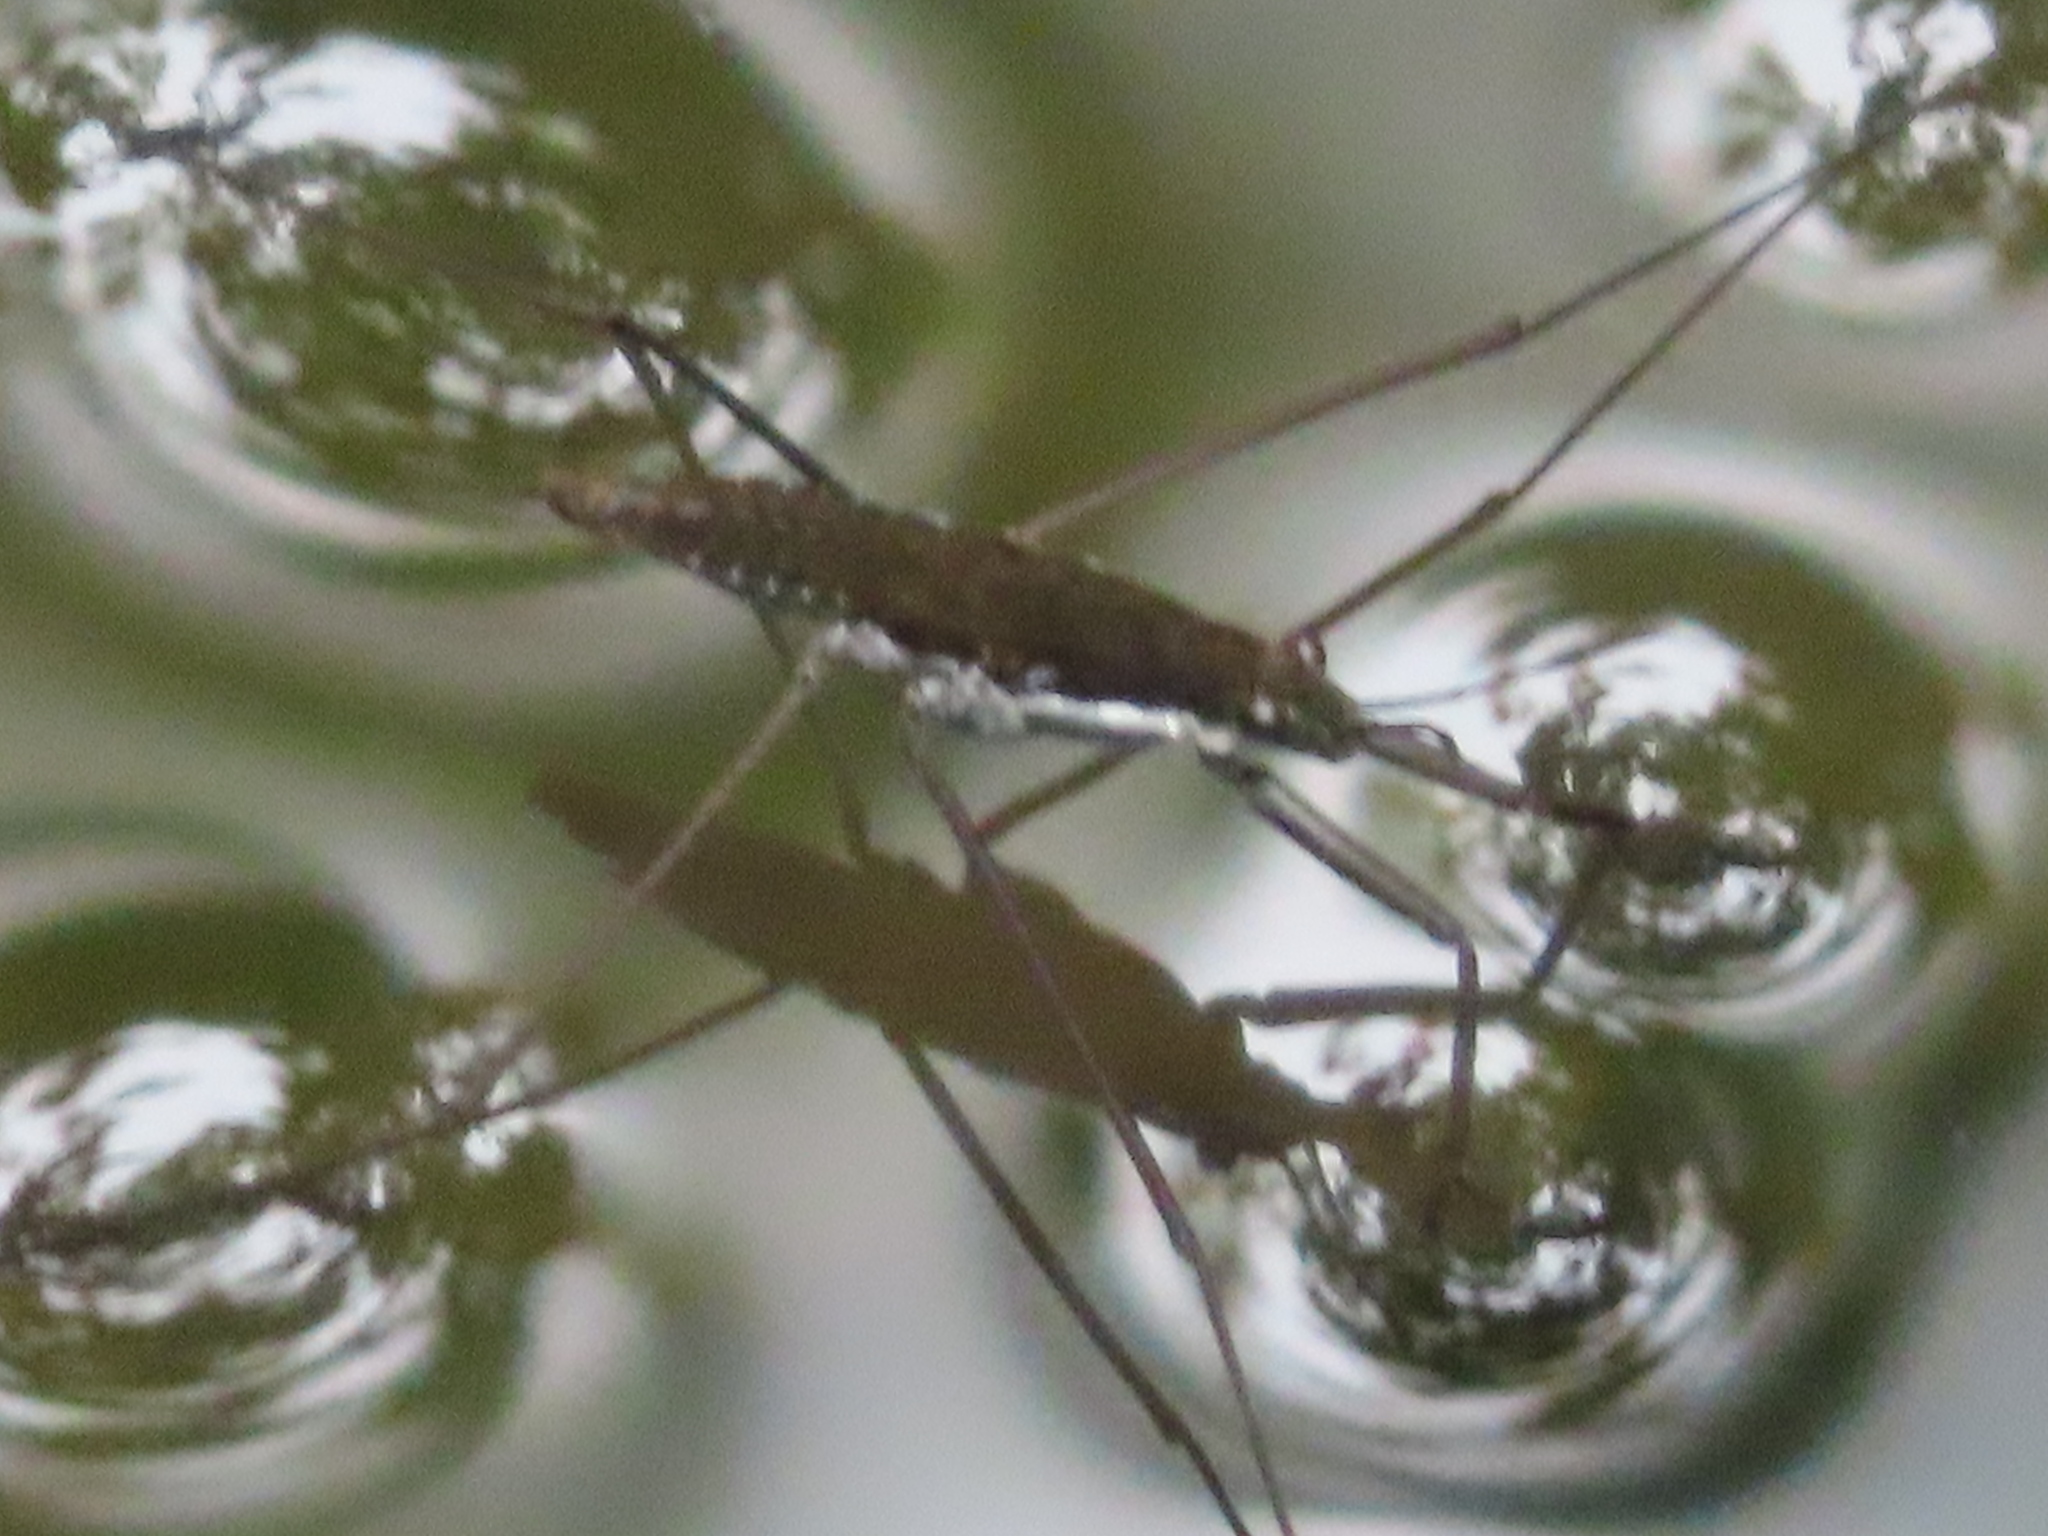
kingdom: Animalia
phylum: Arthropoda
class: Insecta
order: Hemiptera
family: Gerridae
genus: Aquarius
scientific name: Aquarius remigis
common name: Common water strider
